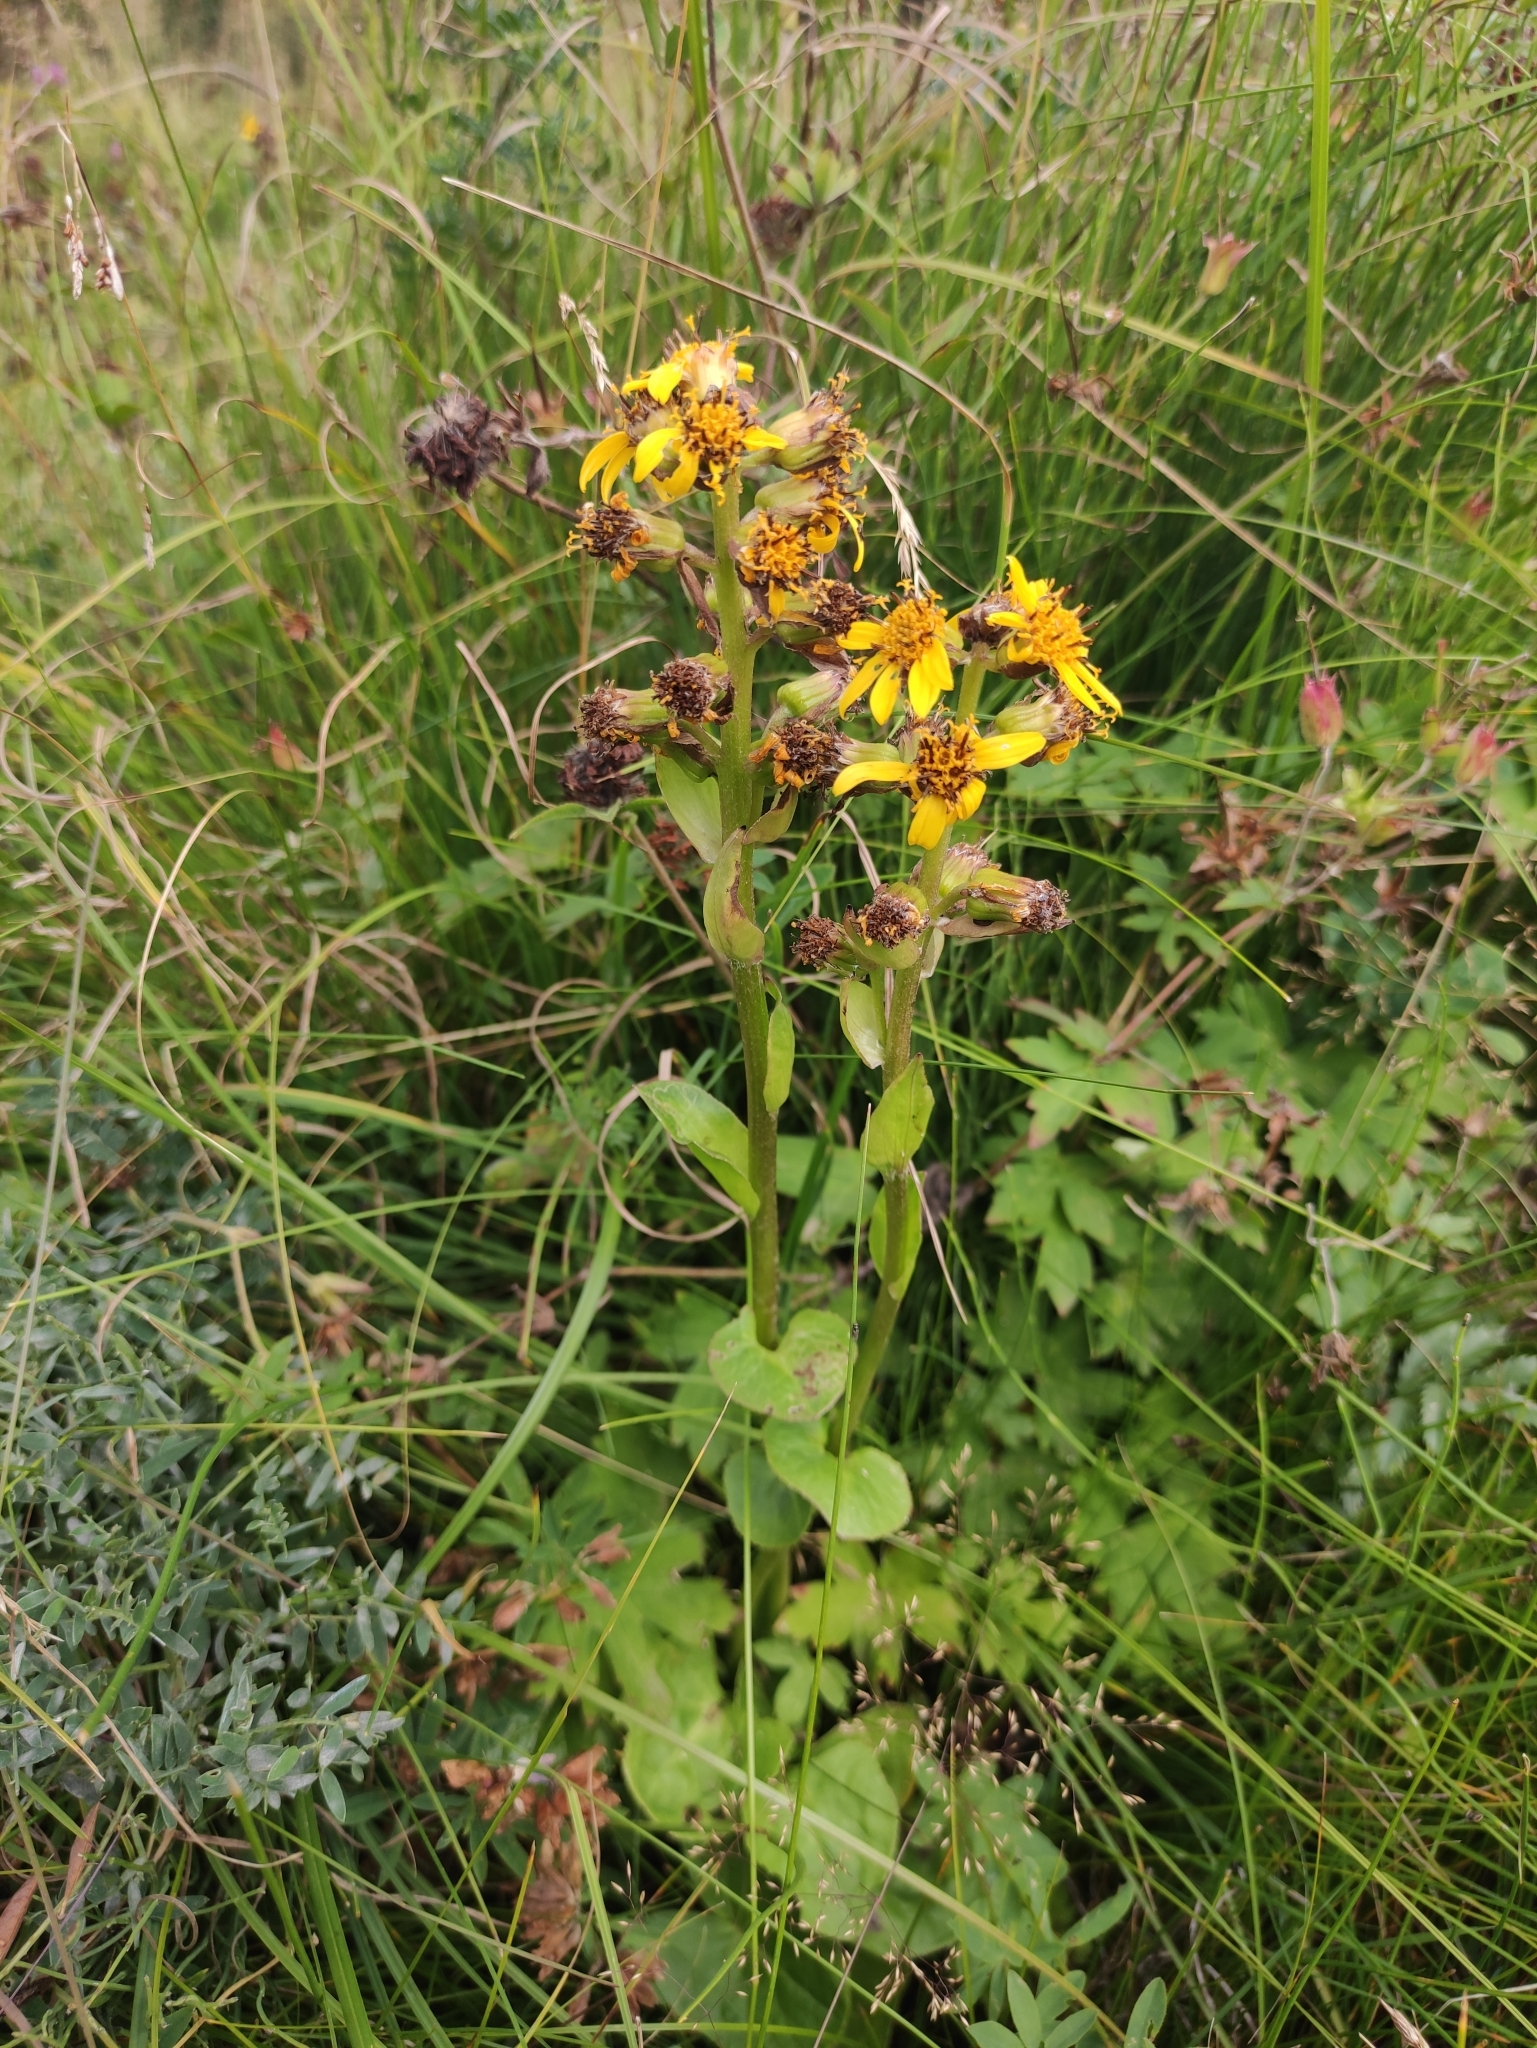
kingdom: Plantae
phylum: Tracheophyta
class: Magnoliopsida
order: Asterales
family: Asteraceae
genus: Ligularia
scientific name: Ligularia sibirica
